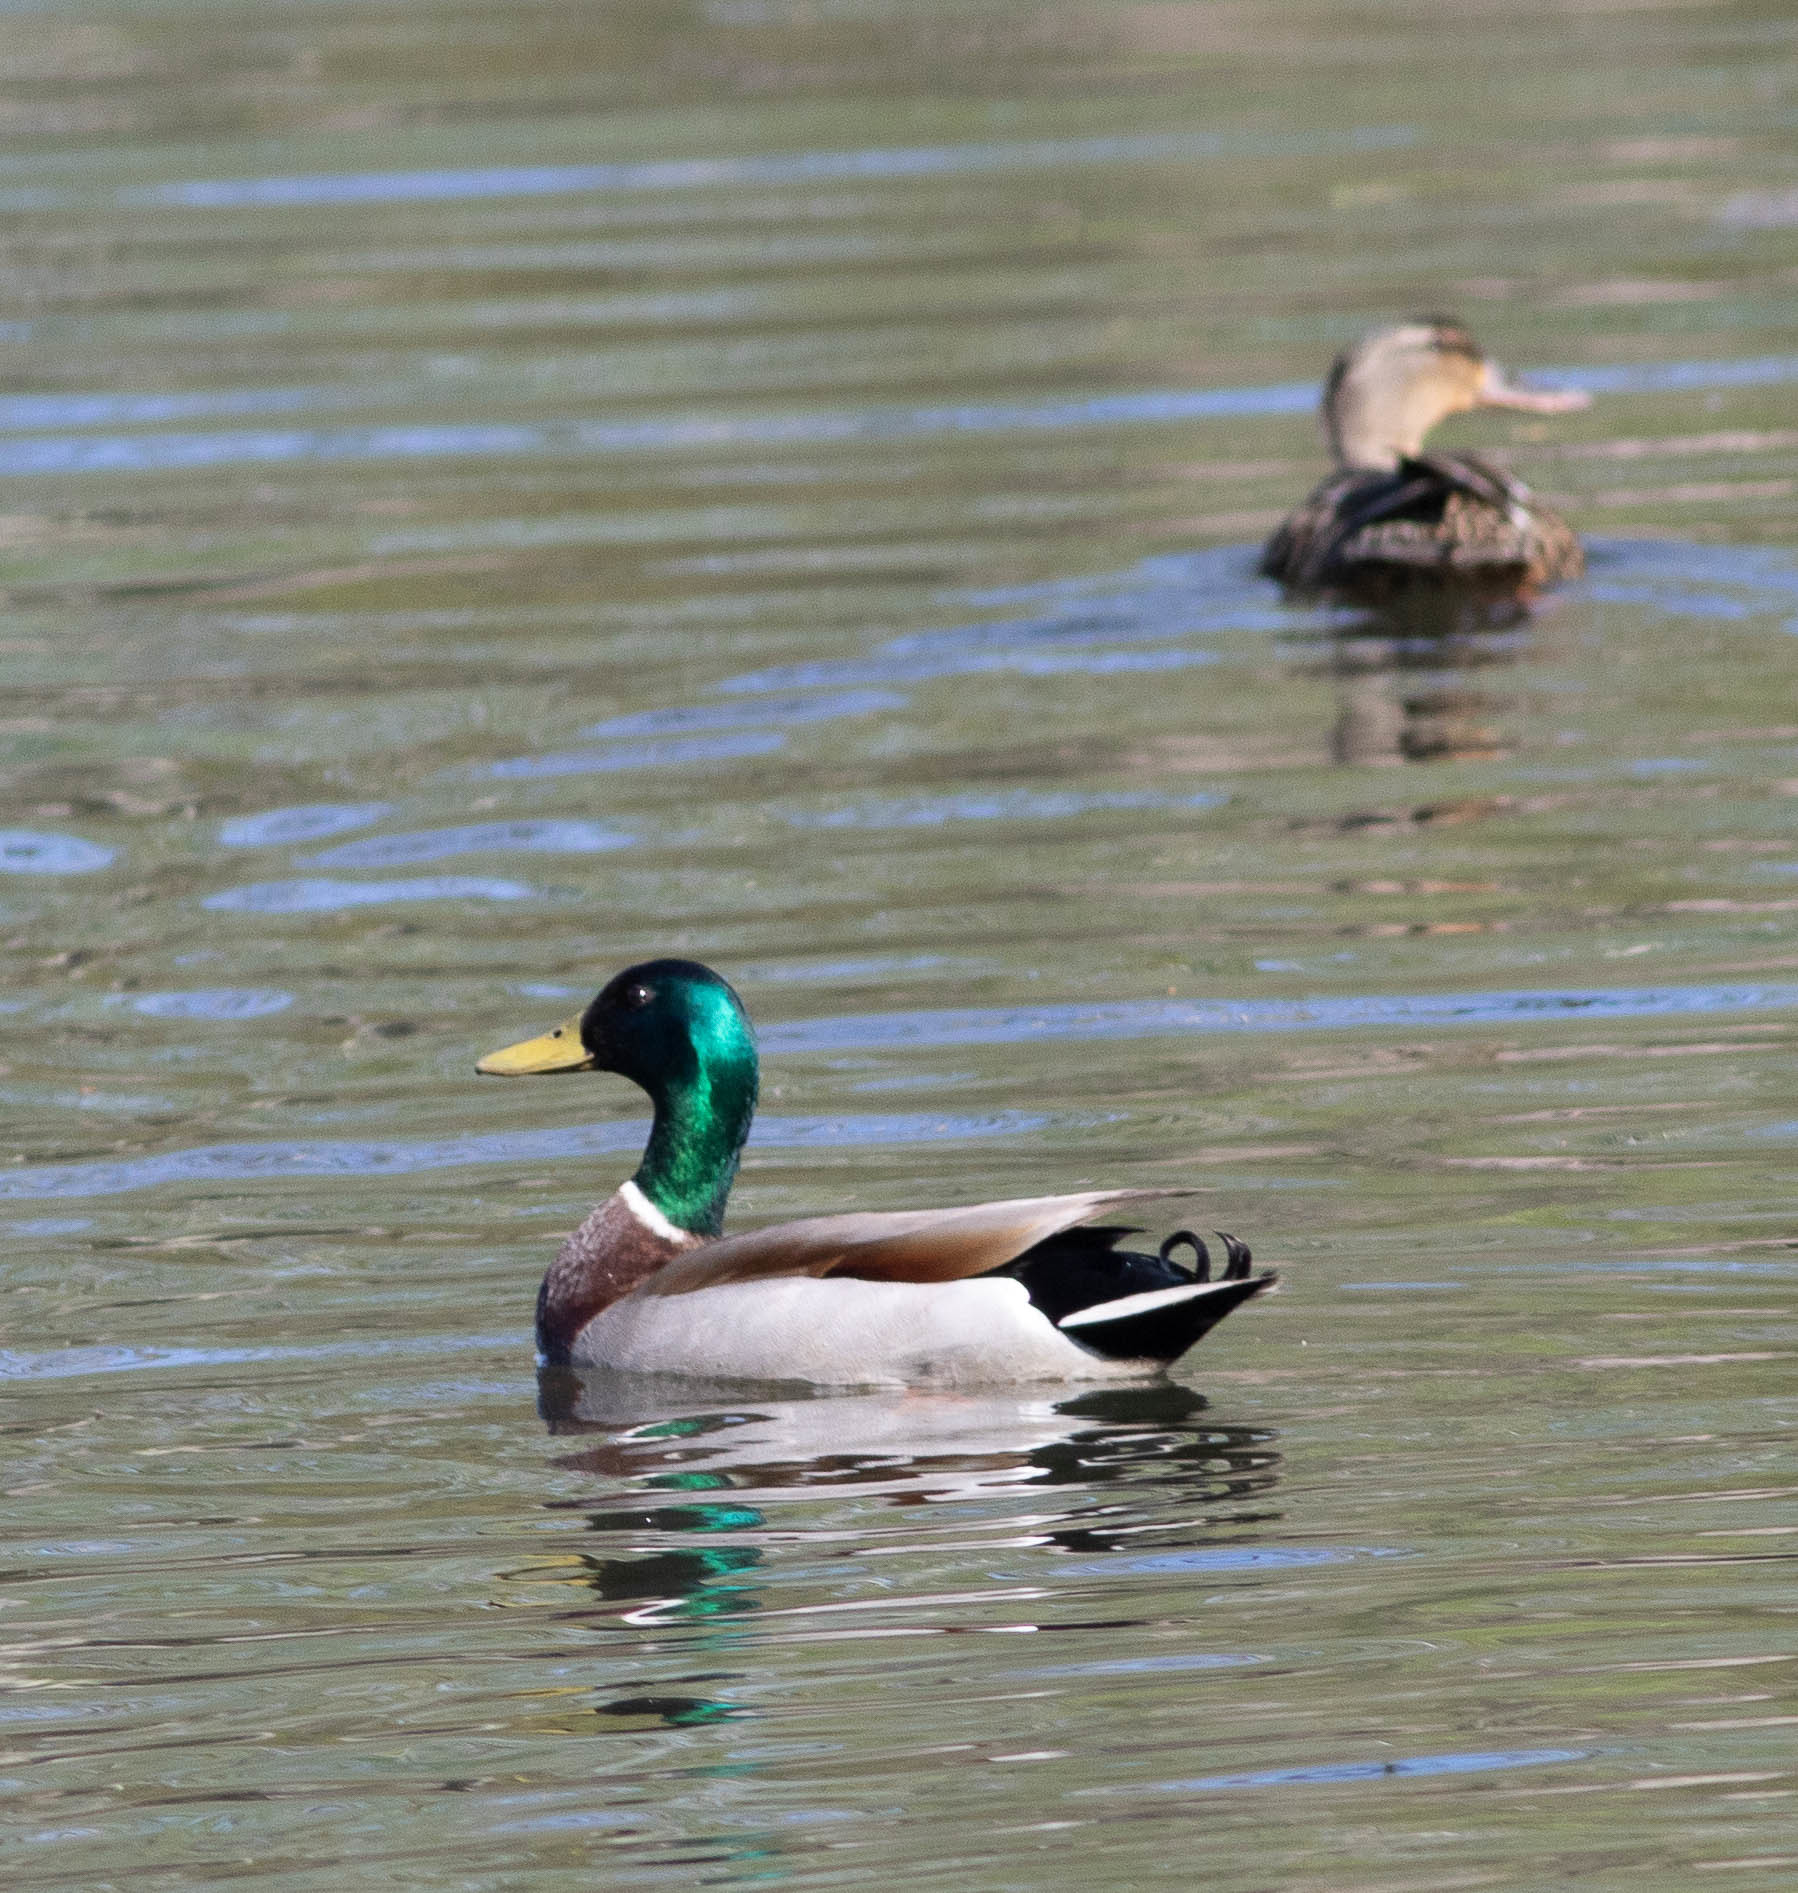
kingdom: Animalia
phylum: Chordata
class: Aves
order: Anseriformes
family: Anatidae
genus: Anas
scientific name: Anas platyrhynchos
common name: Mallard
